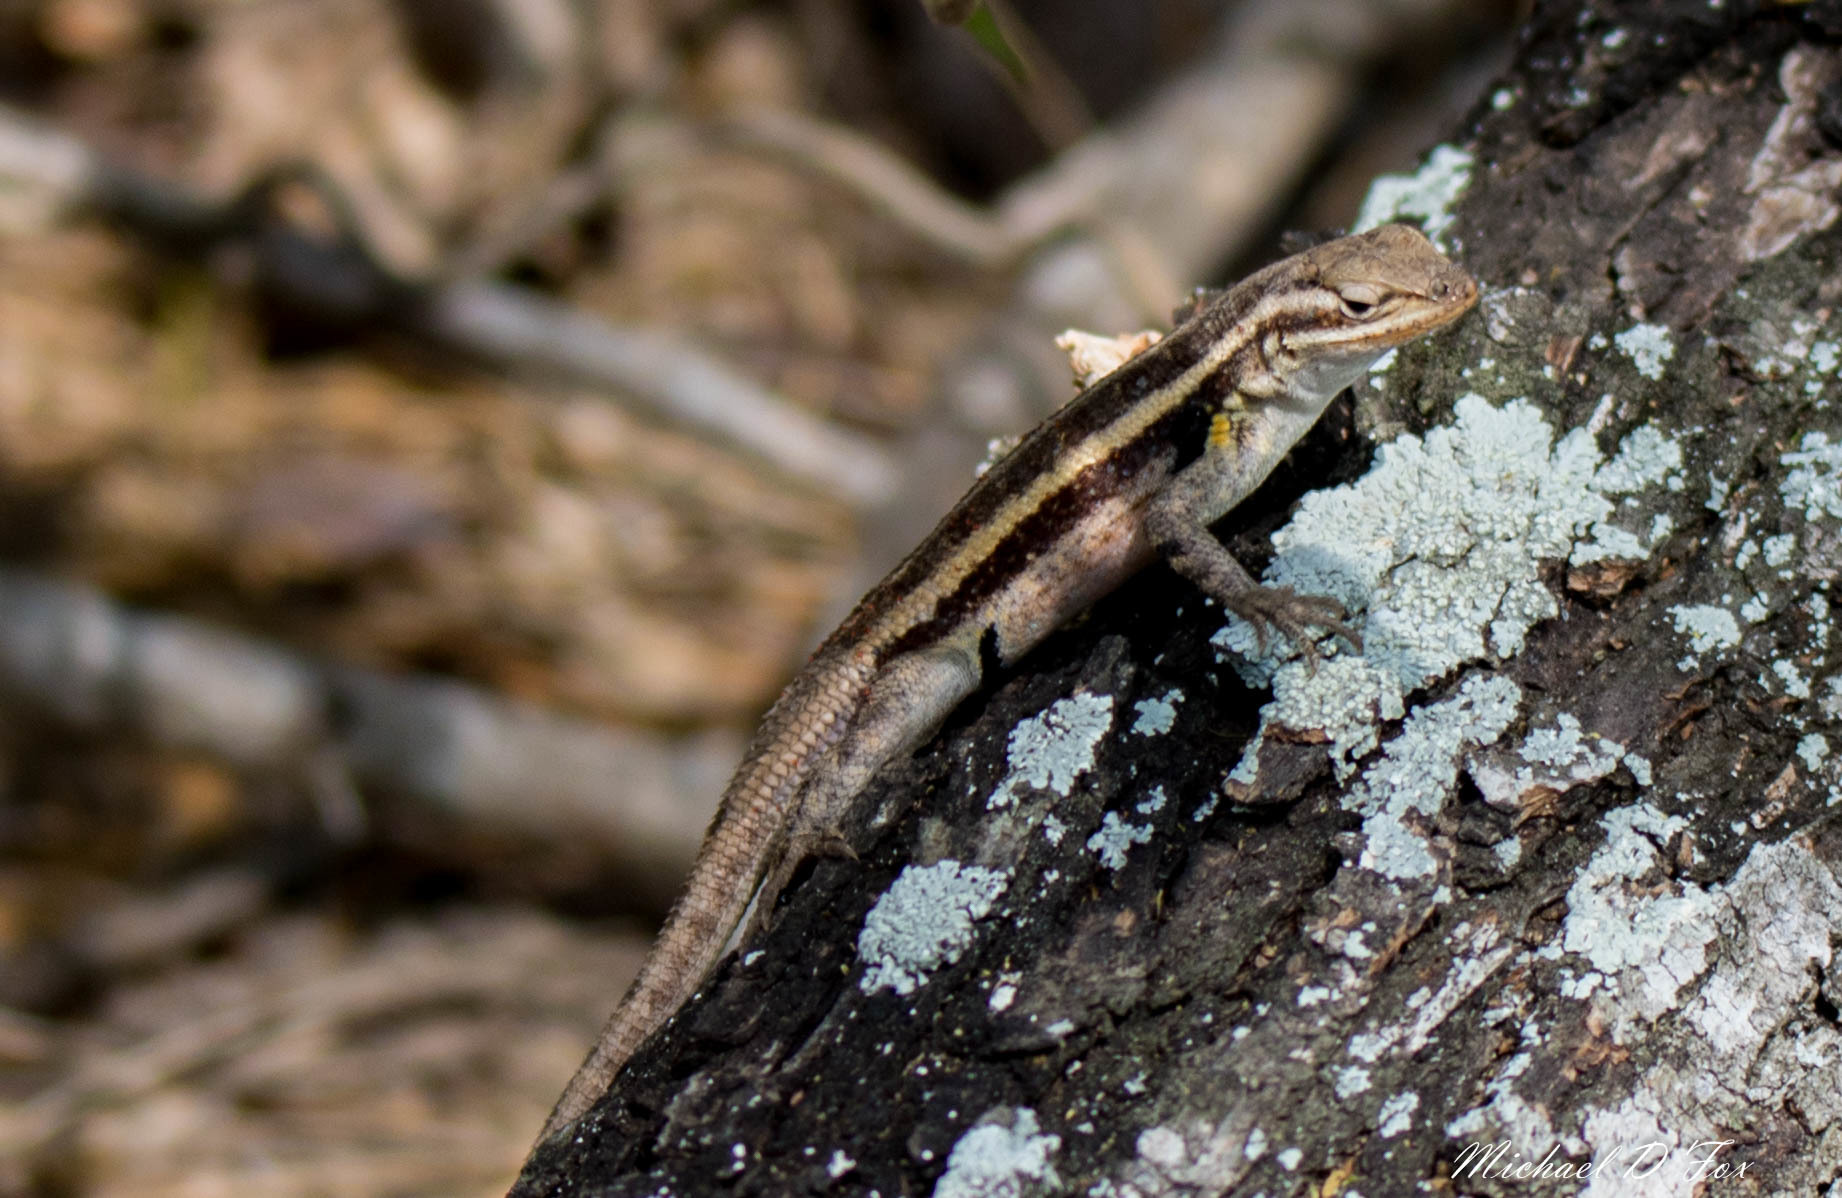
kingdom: Animalia
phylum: Chordata
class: Squamata
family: Phrynosomatidae
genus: Sceloporus
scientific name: Sceloporus variabilis
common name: Rosebelly lizard
